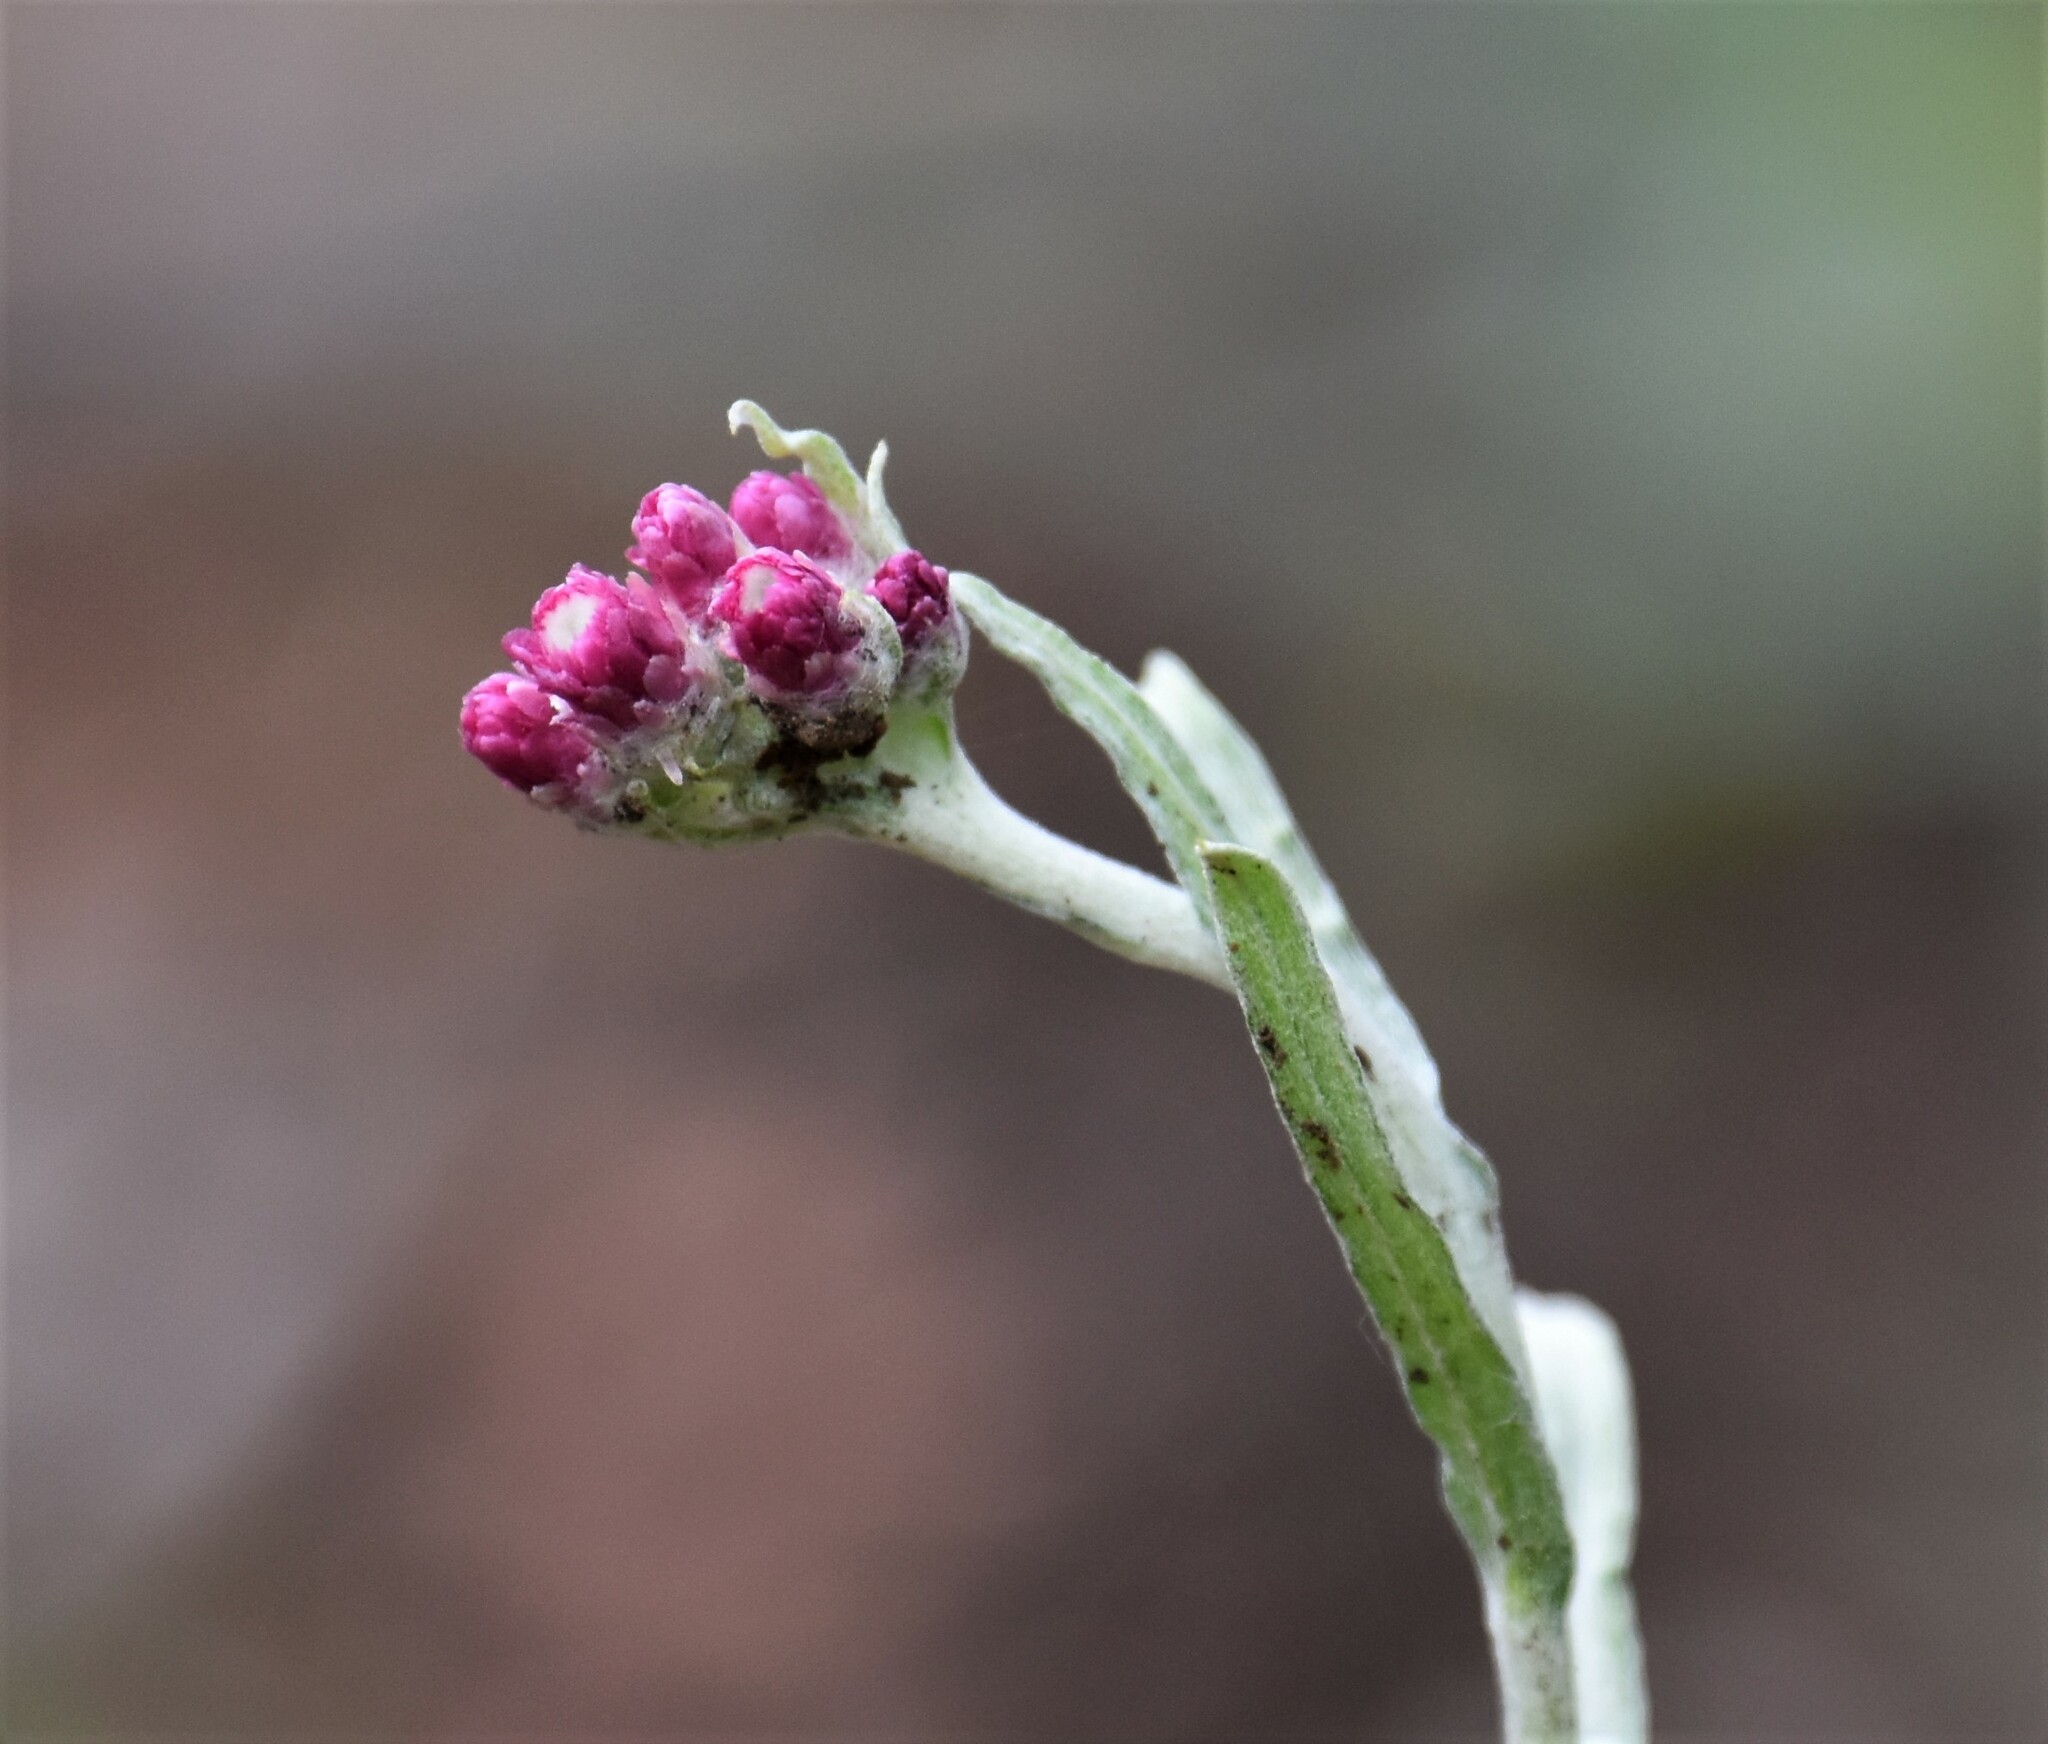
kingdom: Plantae
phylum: Tracheophyta
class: Magnoliopsida
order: Asterales
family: Asteraceae
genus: Antennaria
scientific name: Antennaria rosea
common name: Rosy pussytoes
